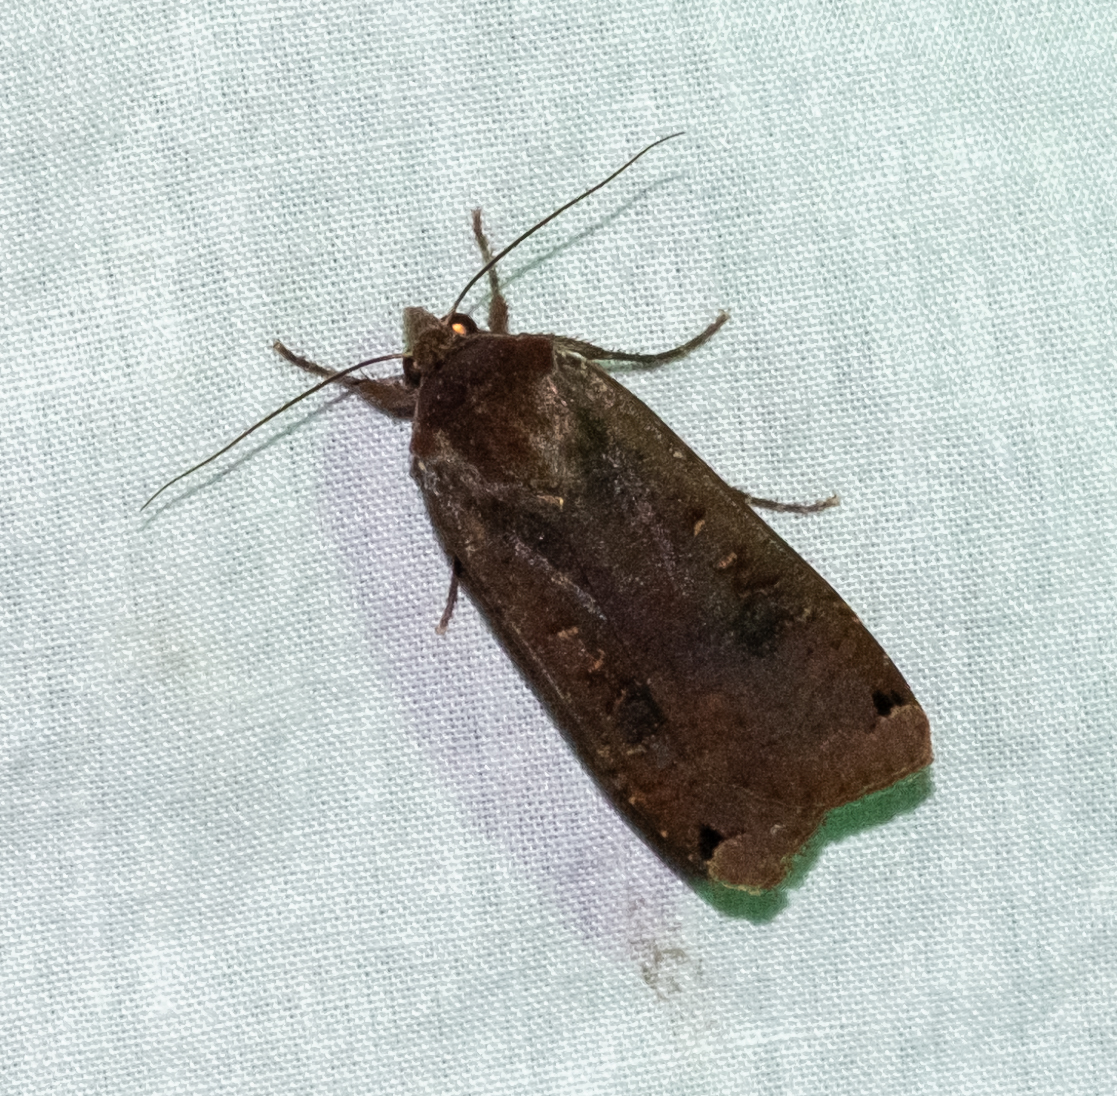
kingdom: Animalia
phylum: Arthropoda
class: Insecta
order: Lepidoptera
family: Noctuidae
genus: Noctua
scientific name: Noctua pronuba
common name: Large yellow underwing
